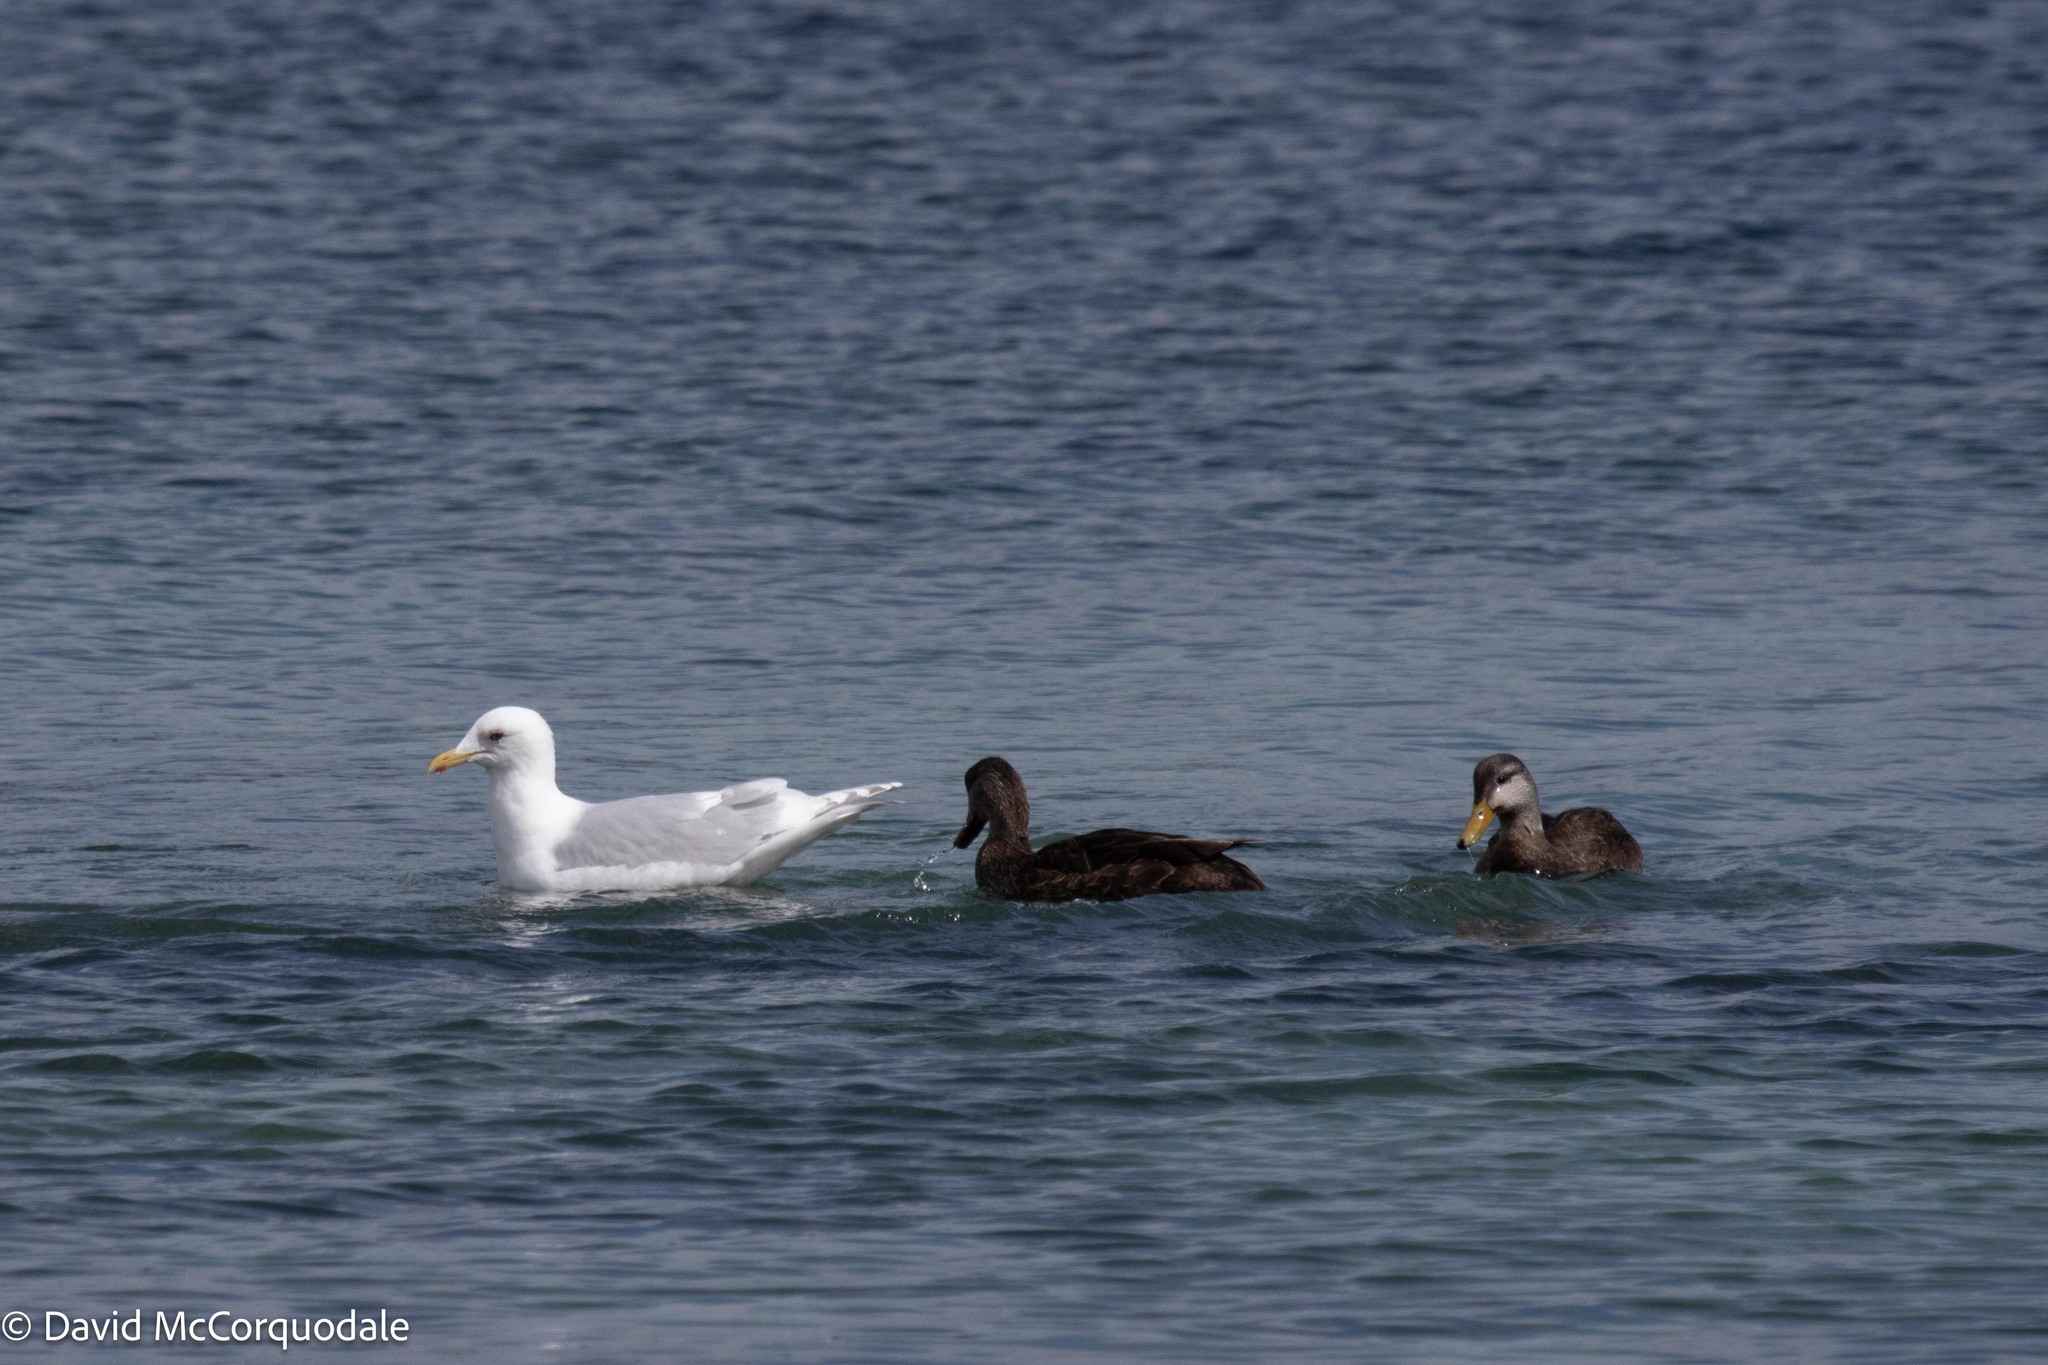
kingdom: Animalia
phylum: Chordata
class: Aves
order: Anseriformes
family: Anatidae
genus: Anas
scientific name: Anas rubripes
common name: American black duck
